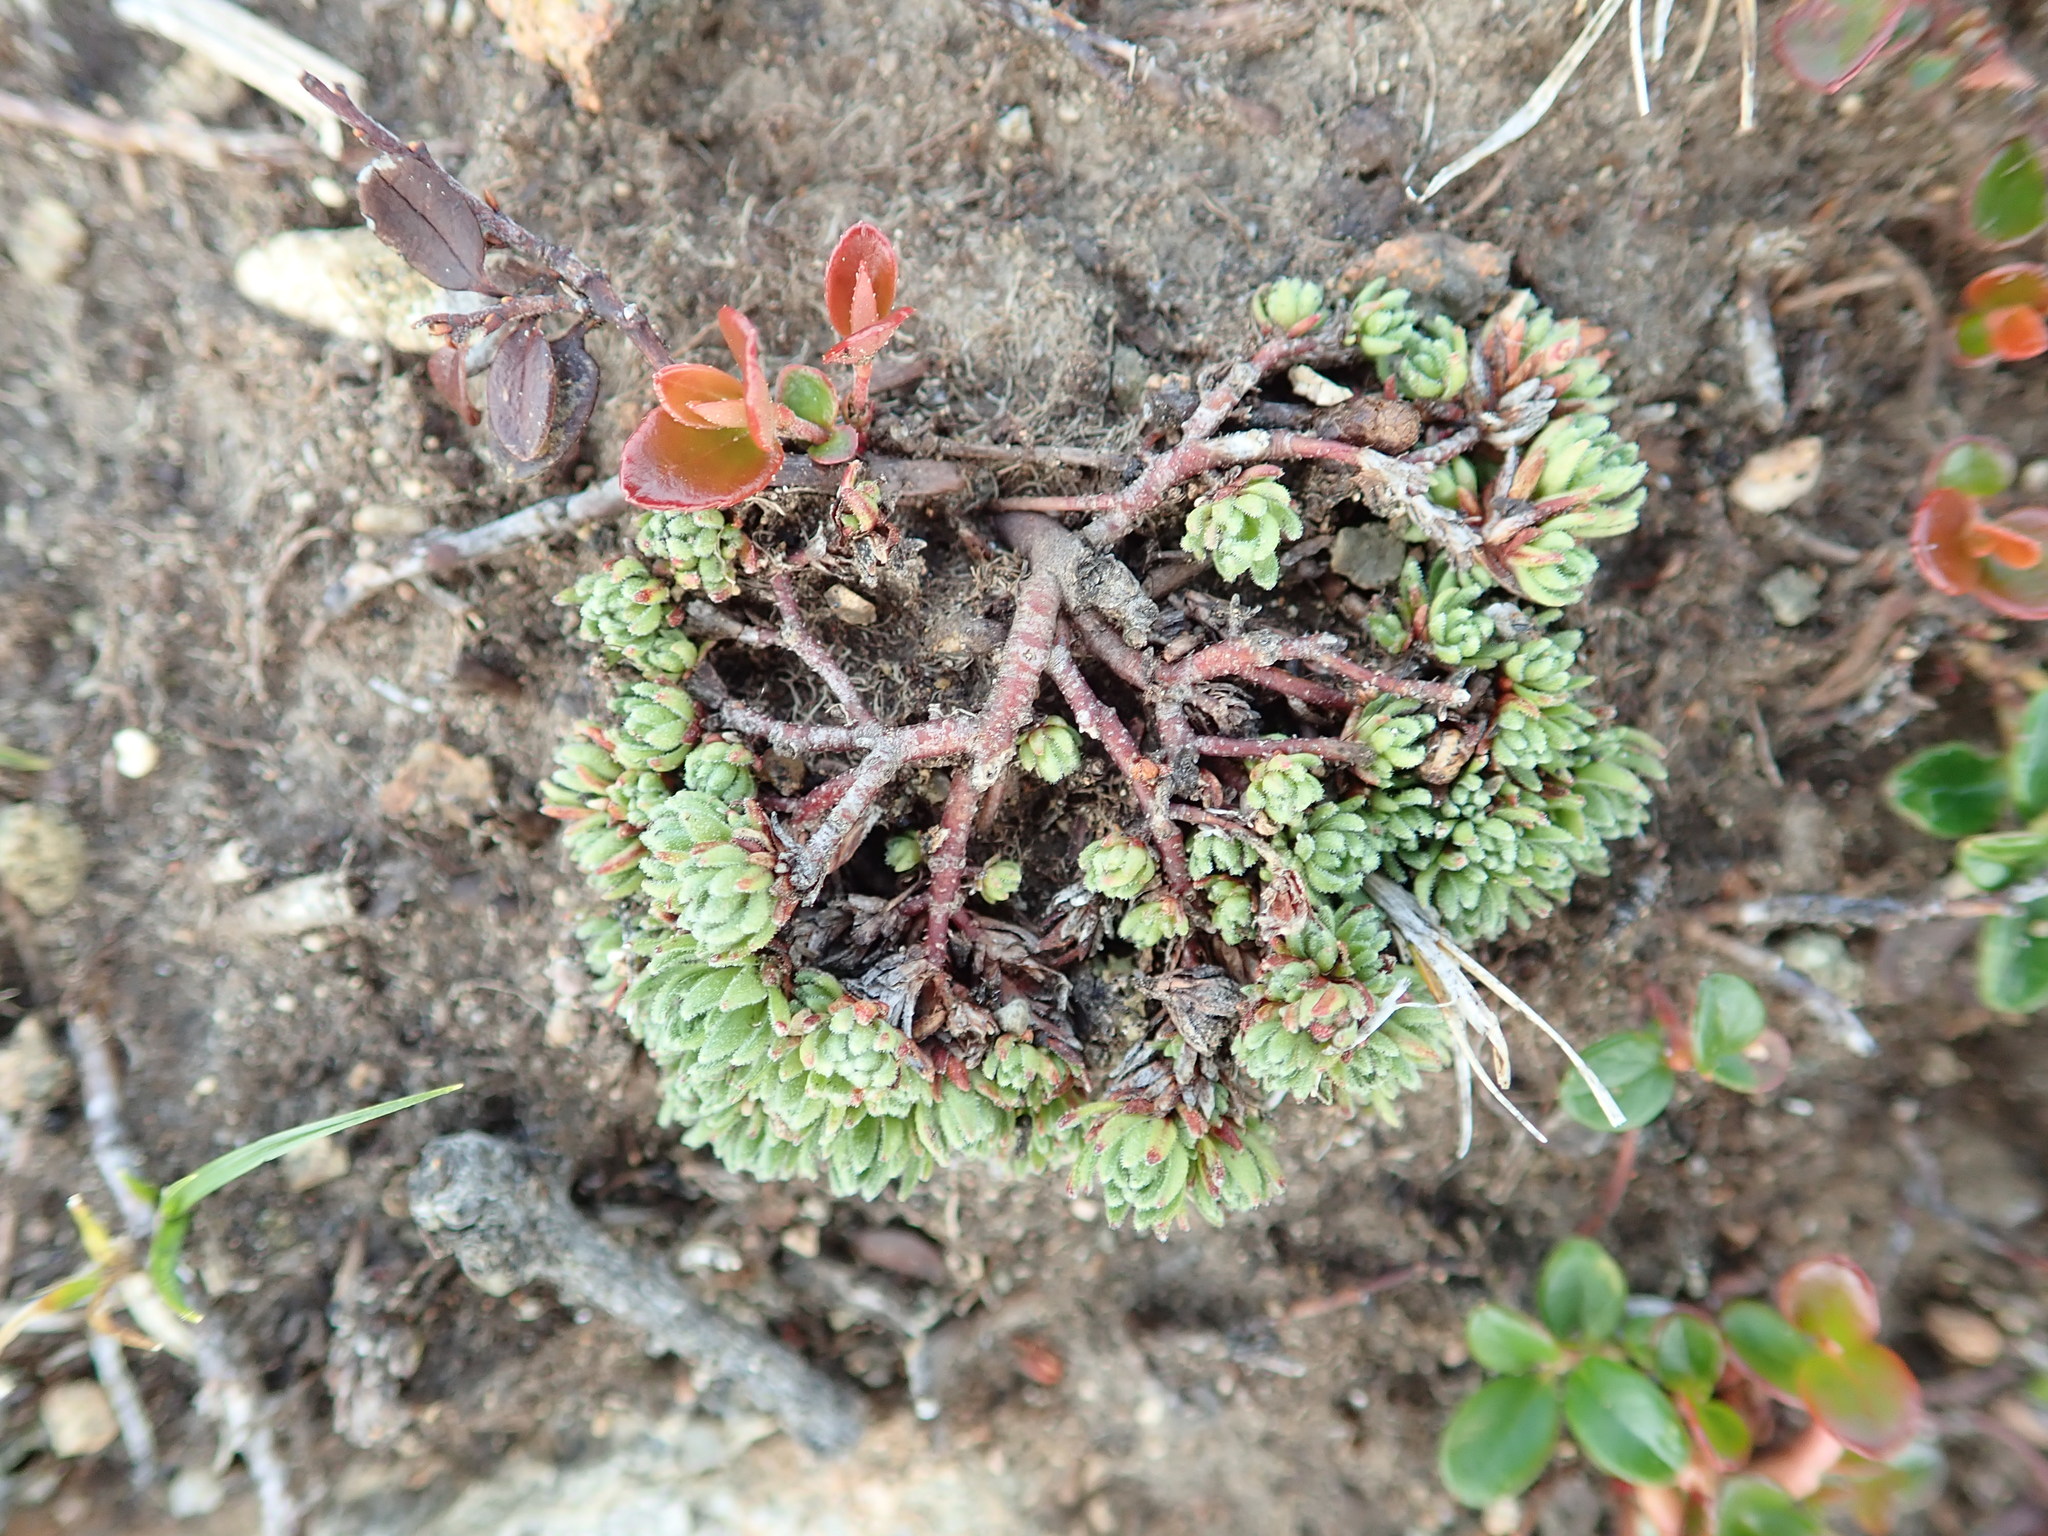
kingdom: Plantae
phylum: Tracheophyta
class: Magnoliopsida
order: Ericales
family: Primulaceae
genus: Androsace
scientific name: Androsace constancei
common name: Gorman's dwarf-primrose
